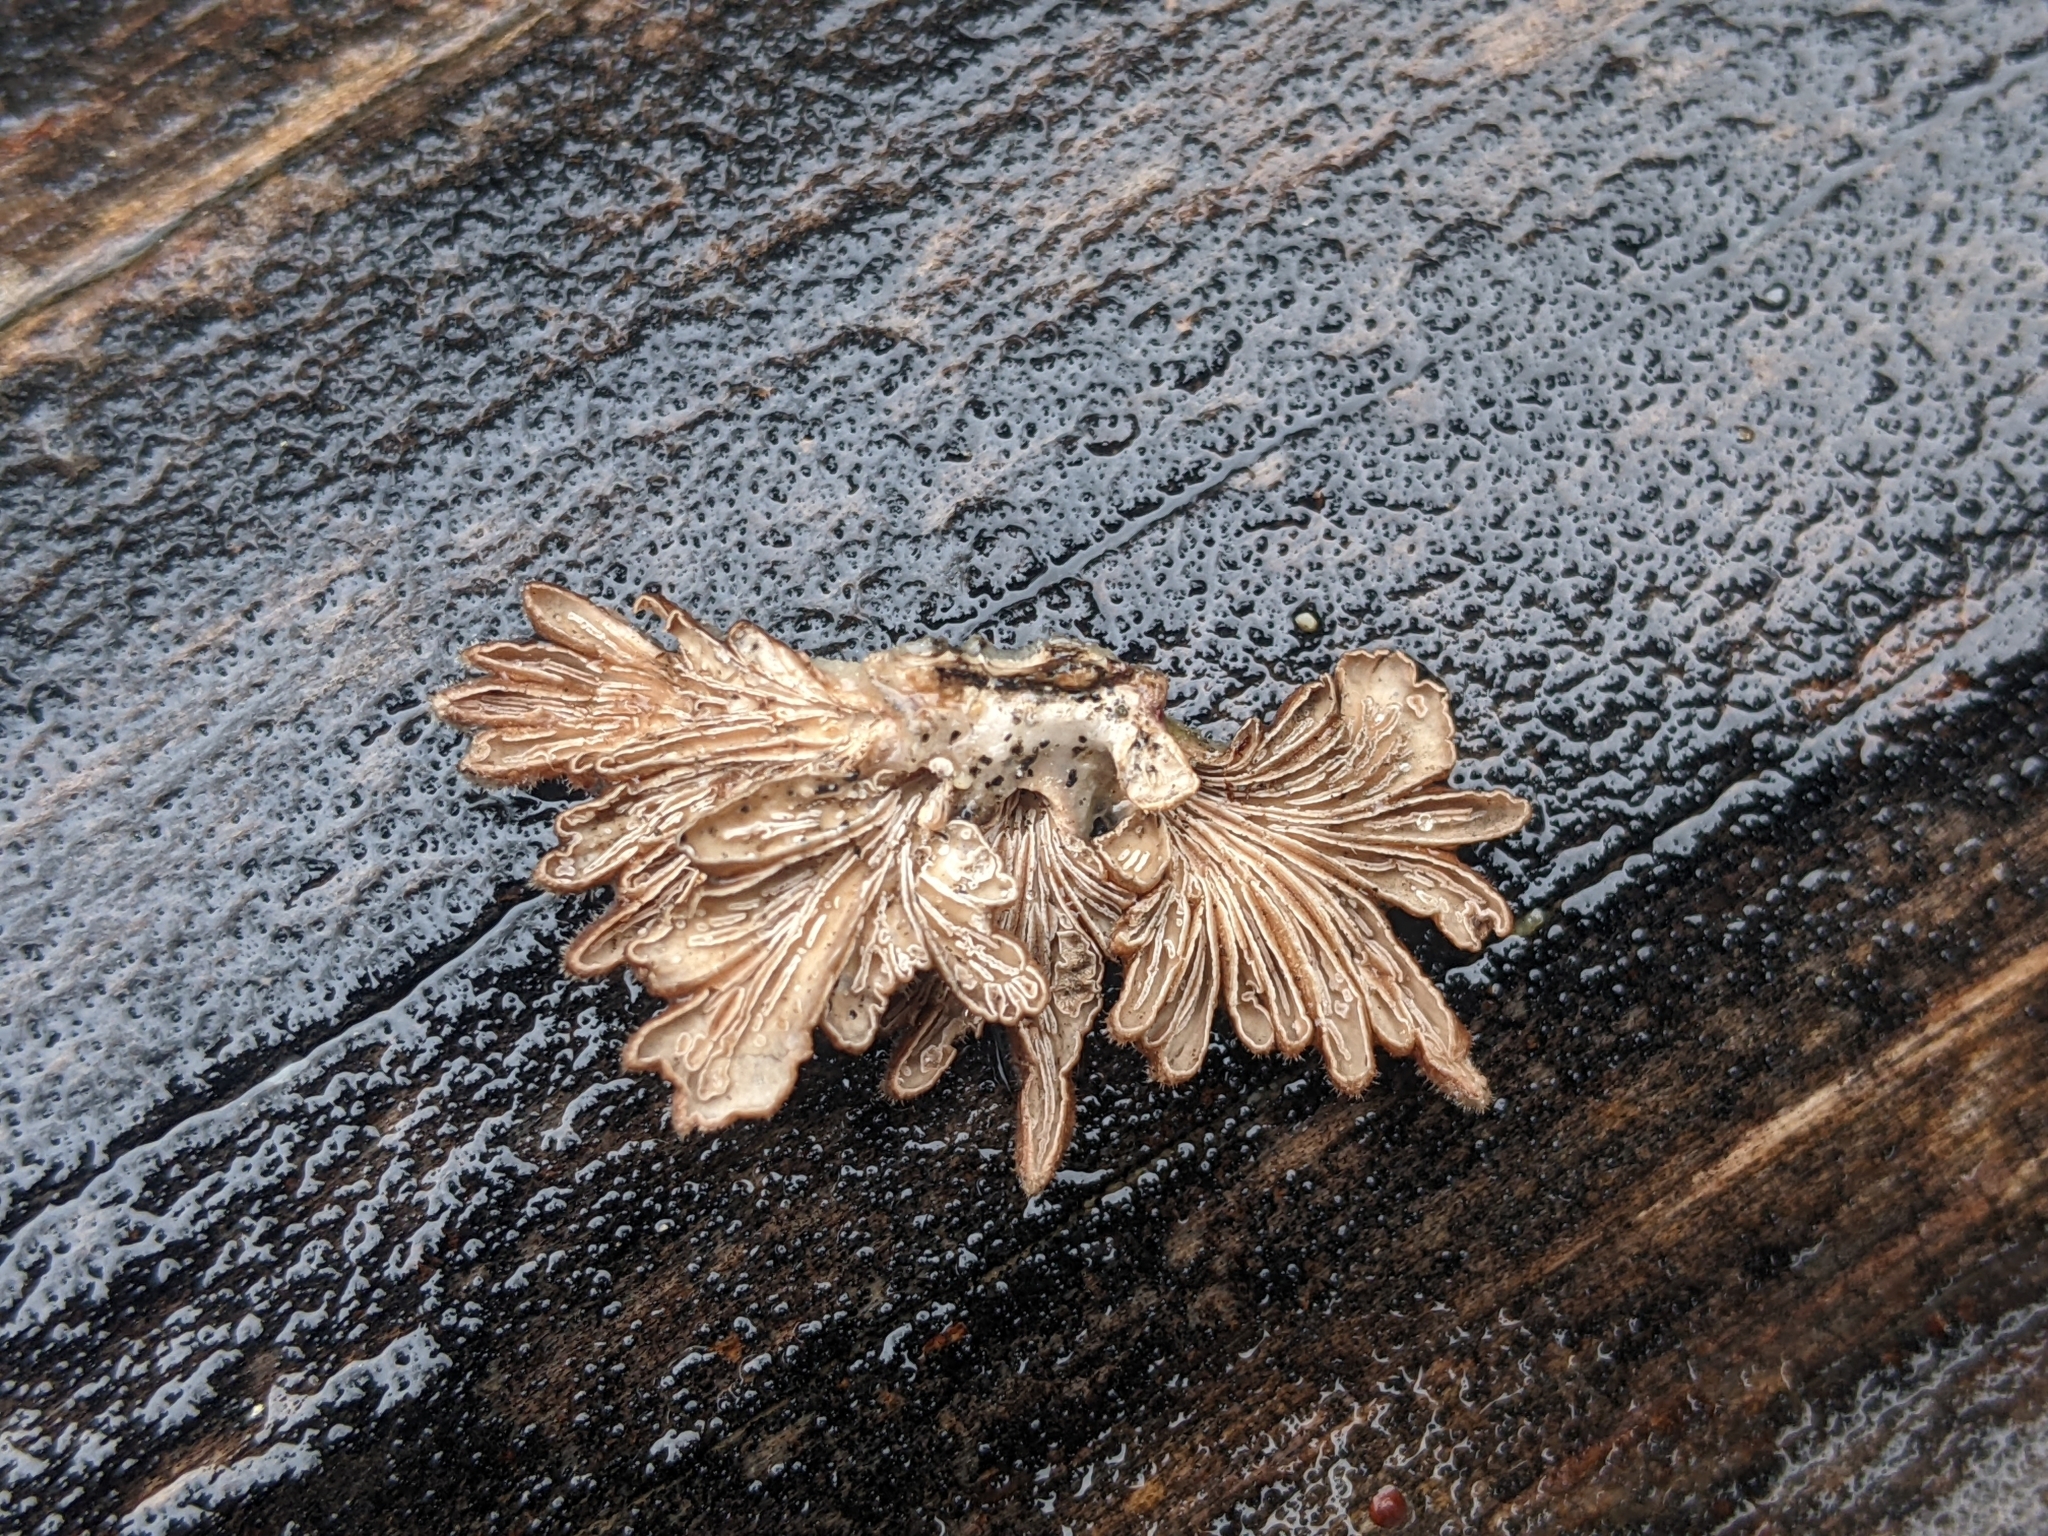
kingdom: Fungi
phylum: Basidiomycota
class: Agaricomycetes
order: Agaricales
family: Schizophyllaceae
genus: Schizophyllum
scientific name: Schizophyllum commune
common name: Common porecrust
